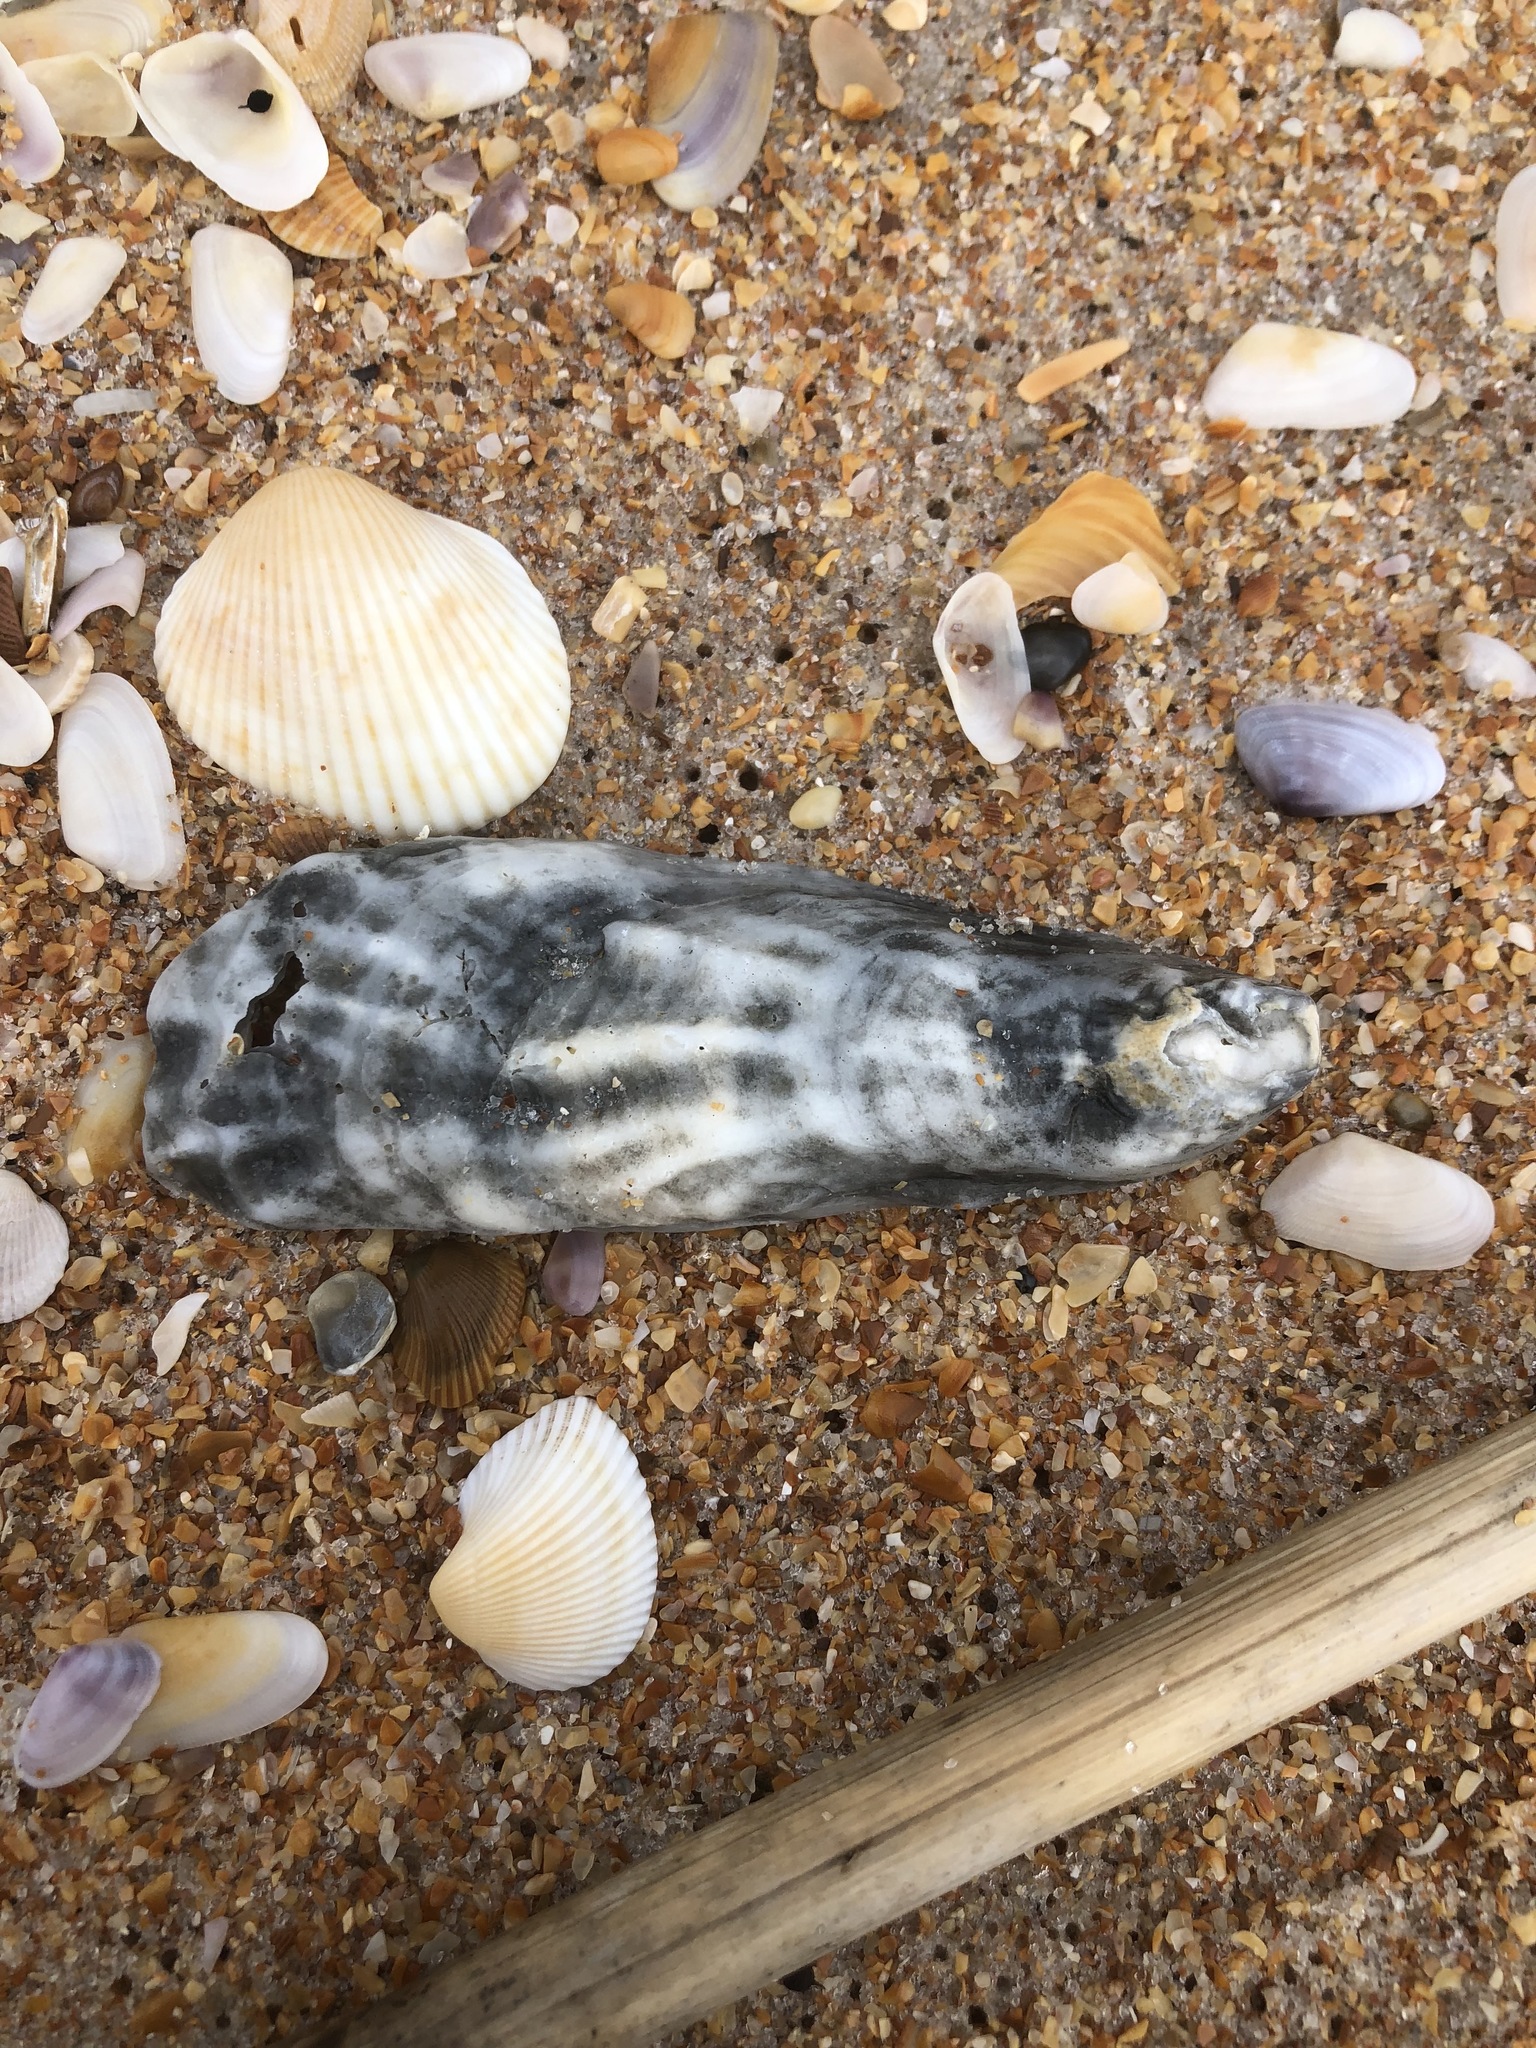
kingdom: Animalia
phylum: Mollusca
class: Bivalvia
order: Ostreida
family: Ostreidae
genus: Crassostrea
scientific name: Crassostrea virginica
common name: American oyster
